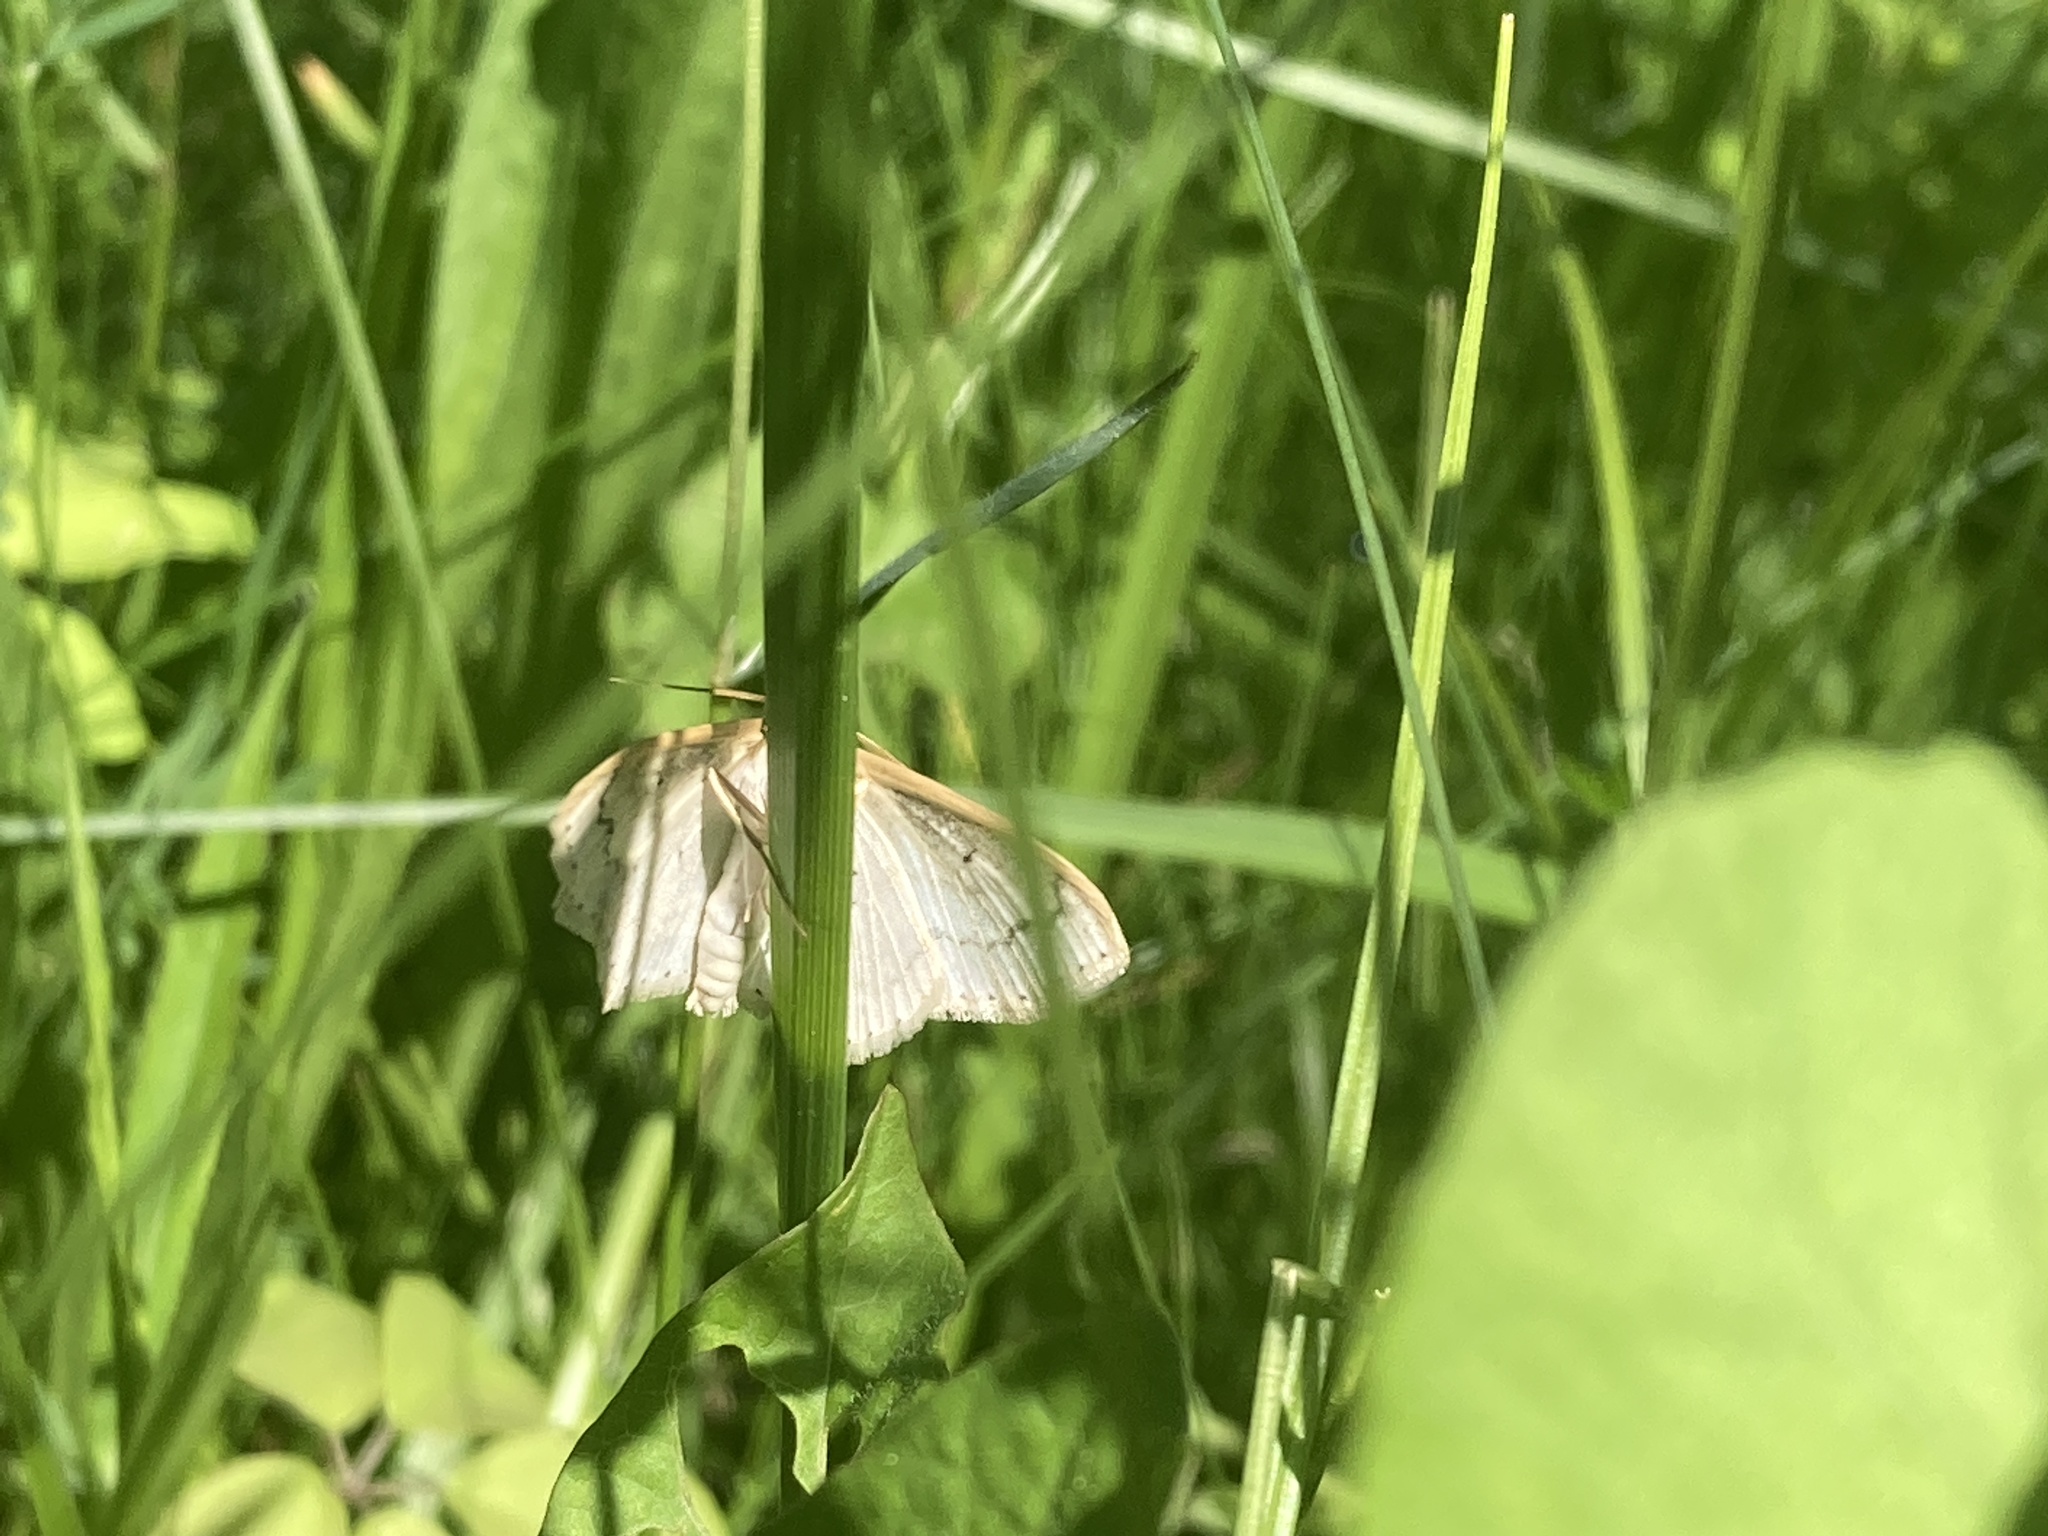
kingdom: Animalia
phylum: Arthropoda
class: Insecta
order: Lepidoptera
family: Geometridae
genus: Scopula
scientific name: Scopula limboundata
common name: Large lace border
